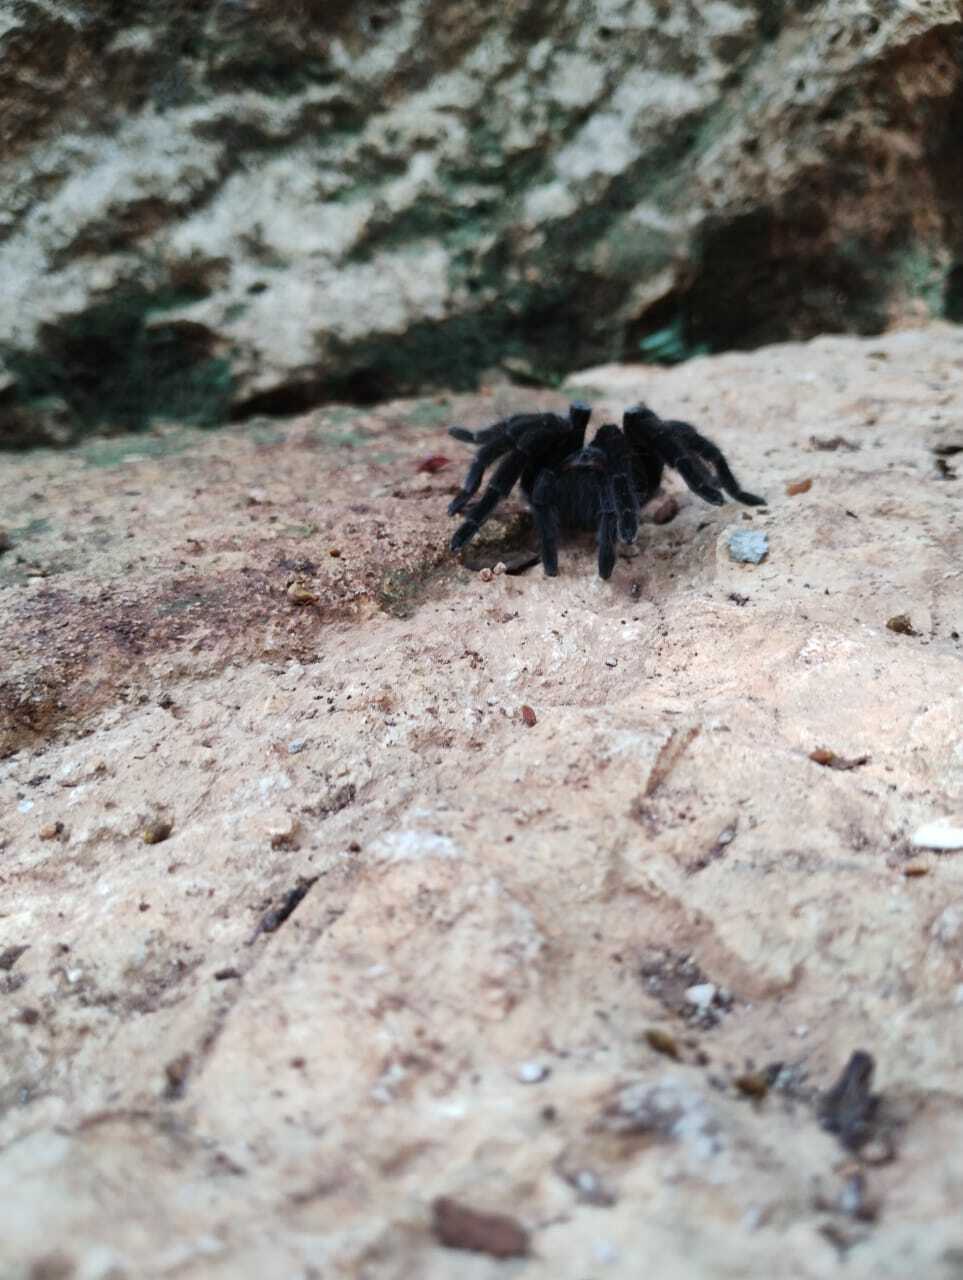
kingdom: Animalia
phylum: Arthropoda
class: Arachnida
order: Araneae
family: Theraphosidae
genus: Tliltocatl
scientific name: Tliltocatl epicureanus
